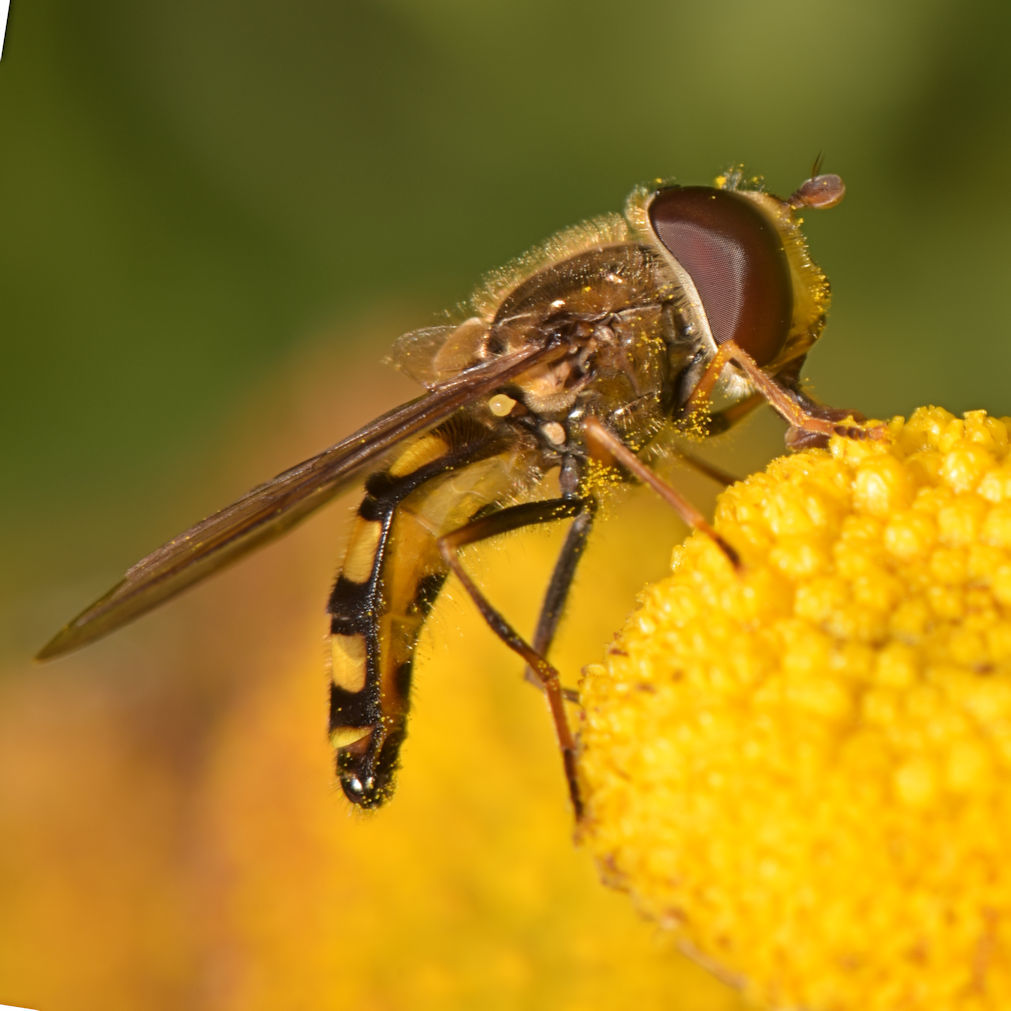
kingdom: Animalia
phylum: Arthropoda
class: Insecta
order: Diptera
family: Syrphidae
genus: Eupeodes
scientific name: Eupeodes
